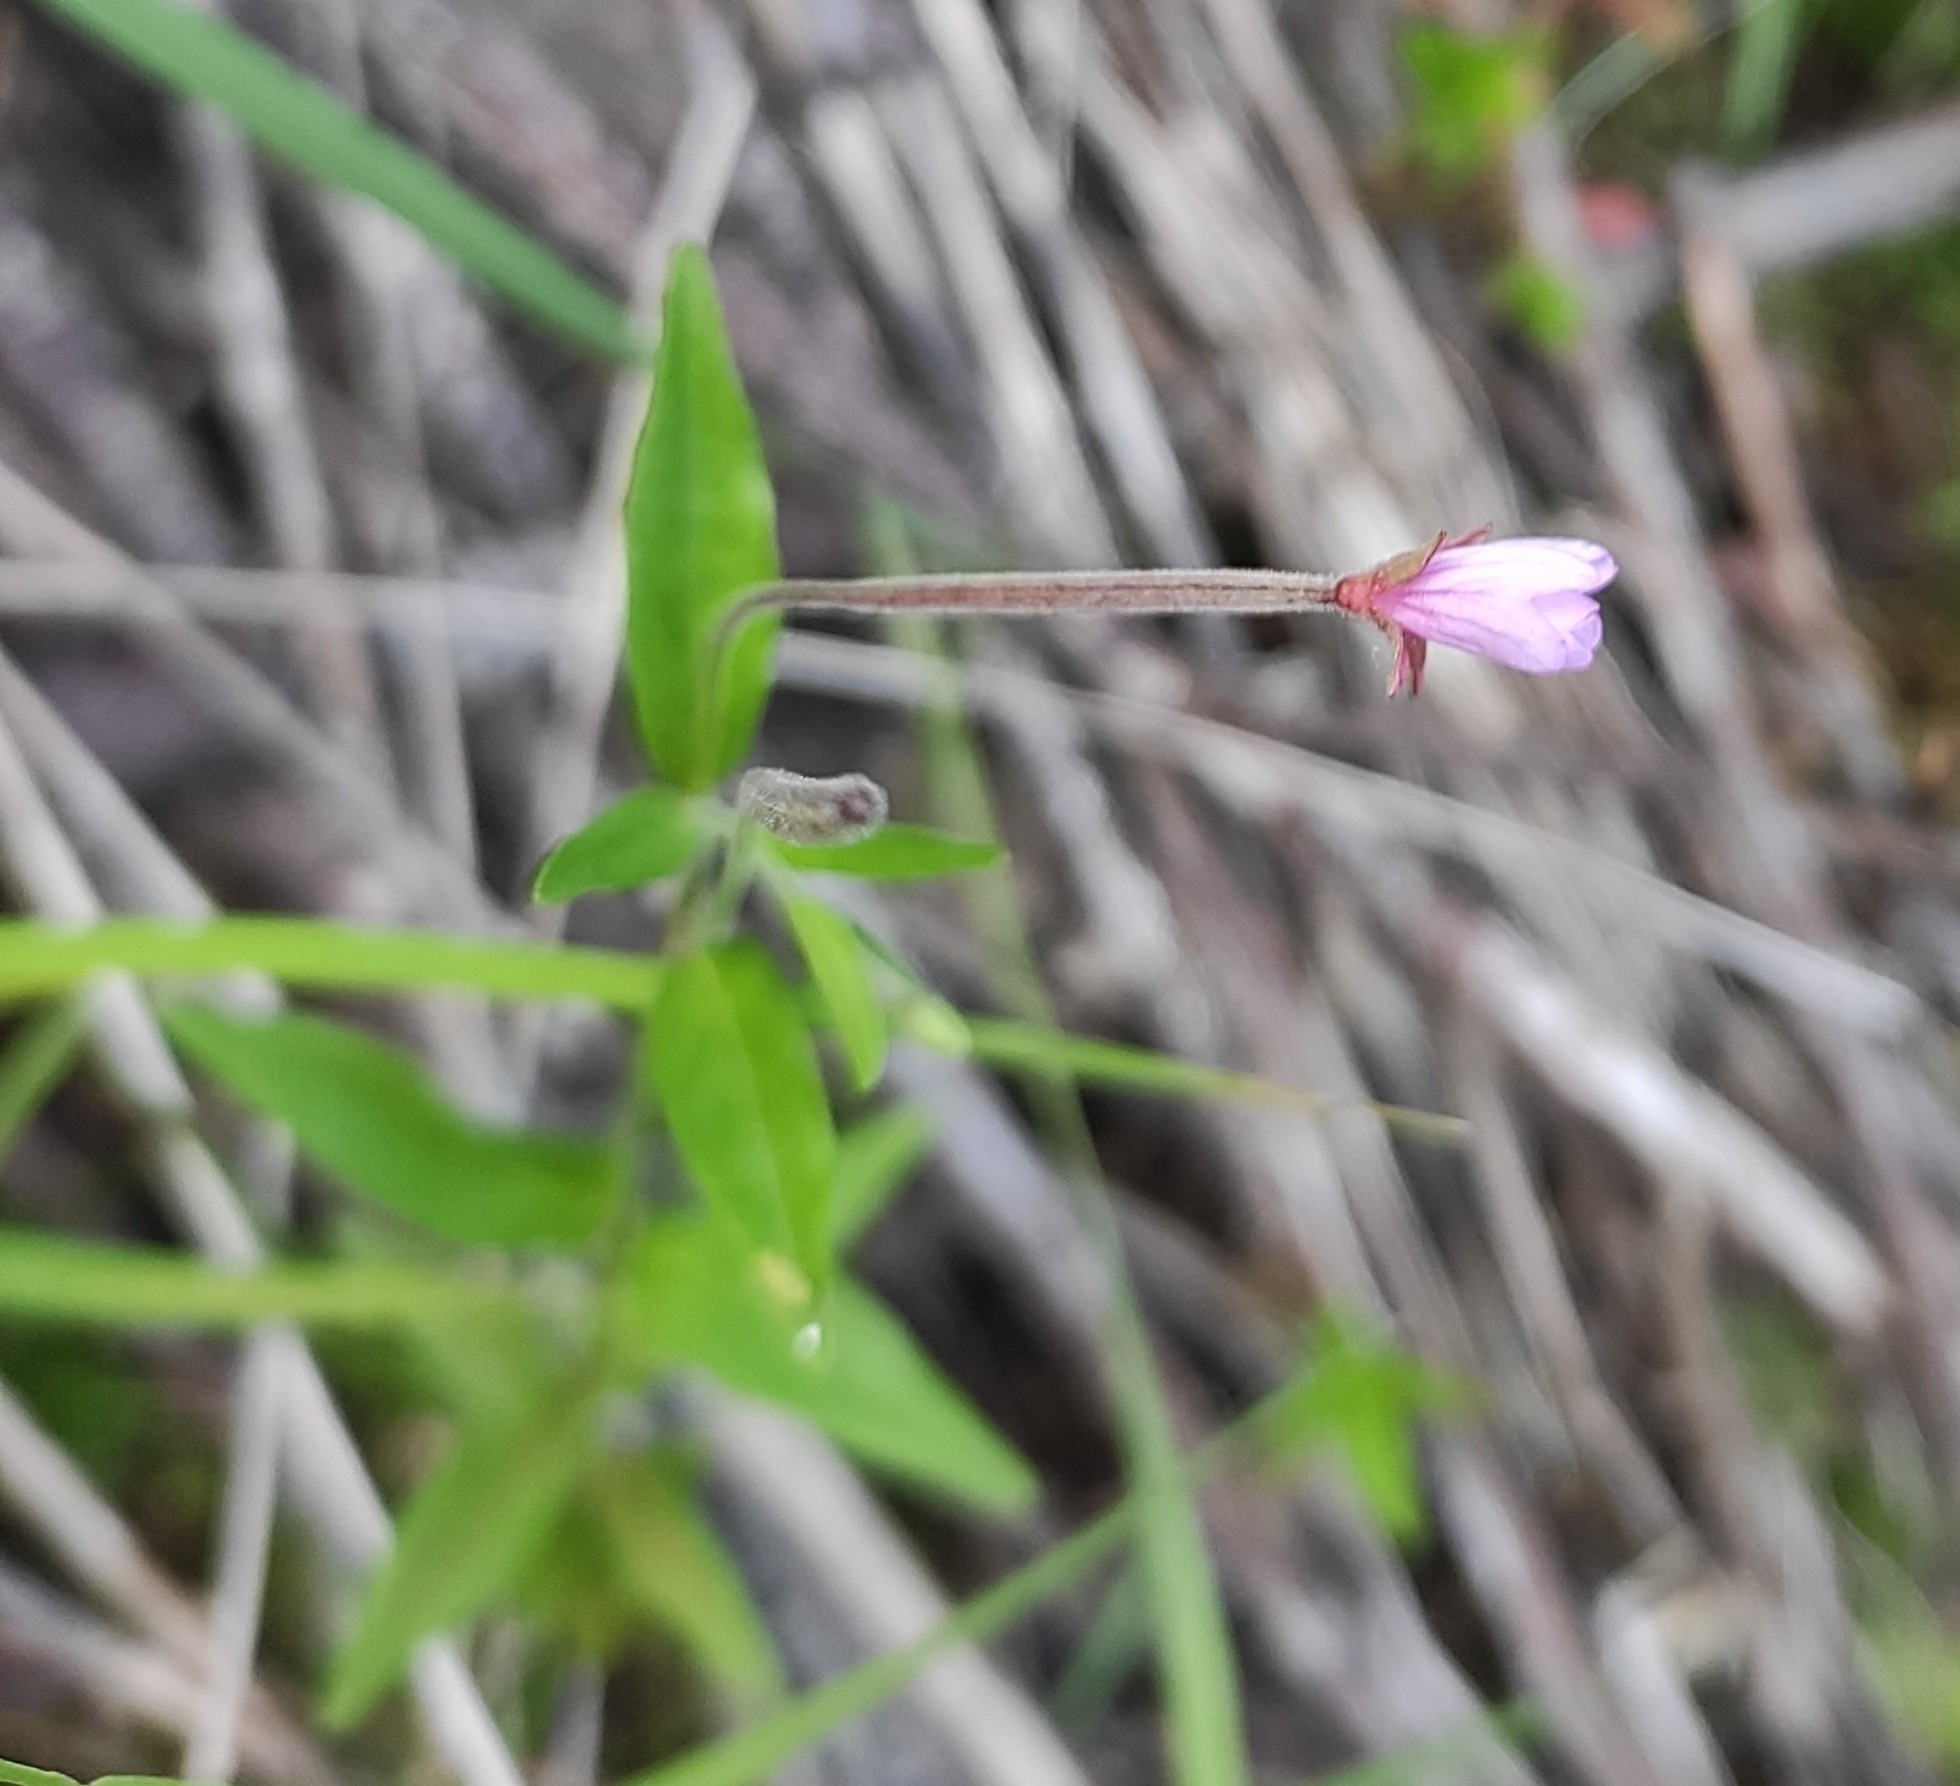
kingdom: Plantae
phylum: Tracheophyta
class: Magnoliopsida
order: Myrtales
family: Onagraceae
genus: Epilobium
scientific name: Epilobium gemmascens
